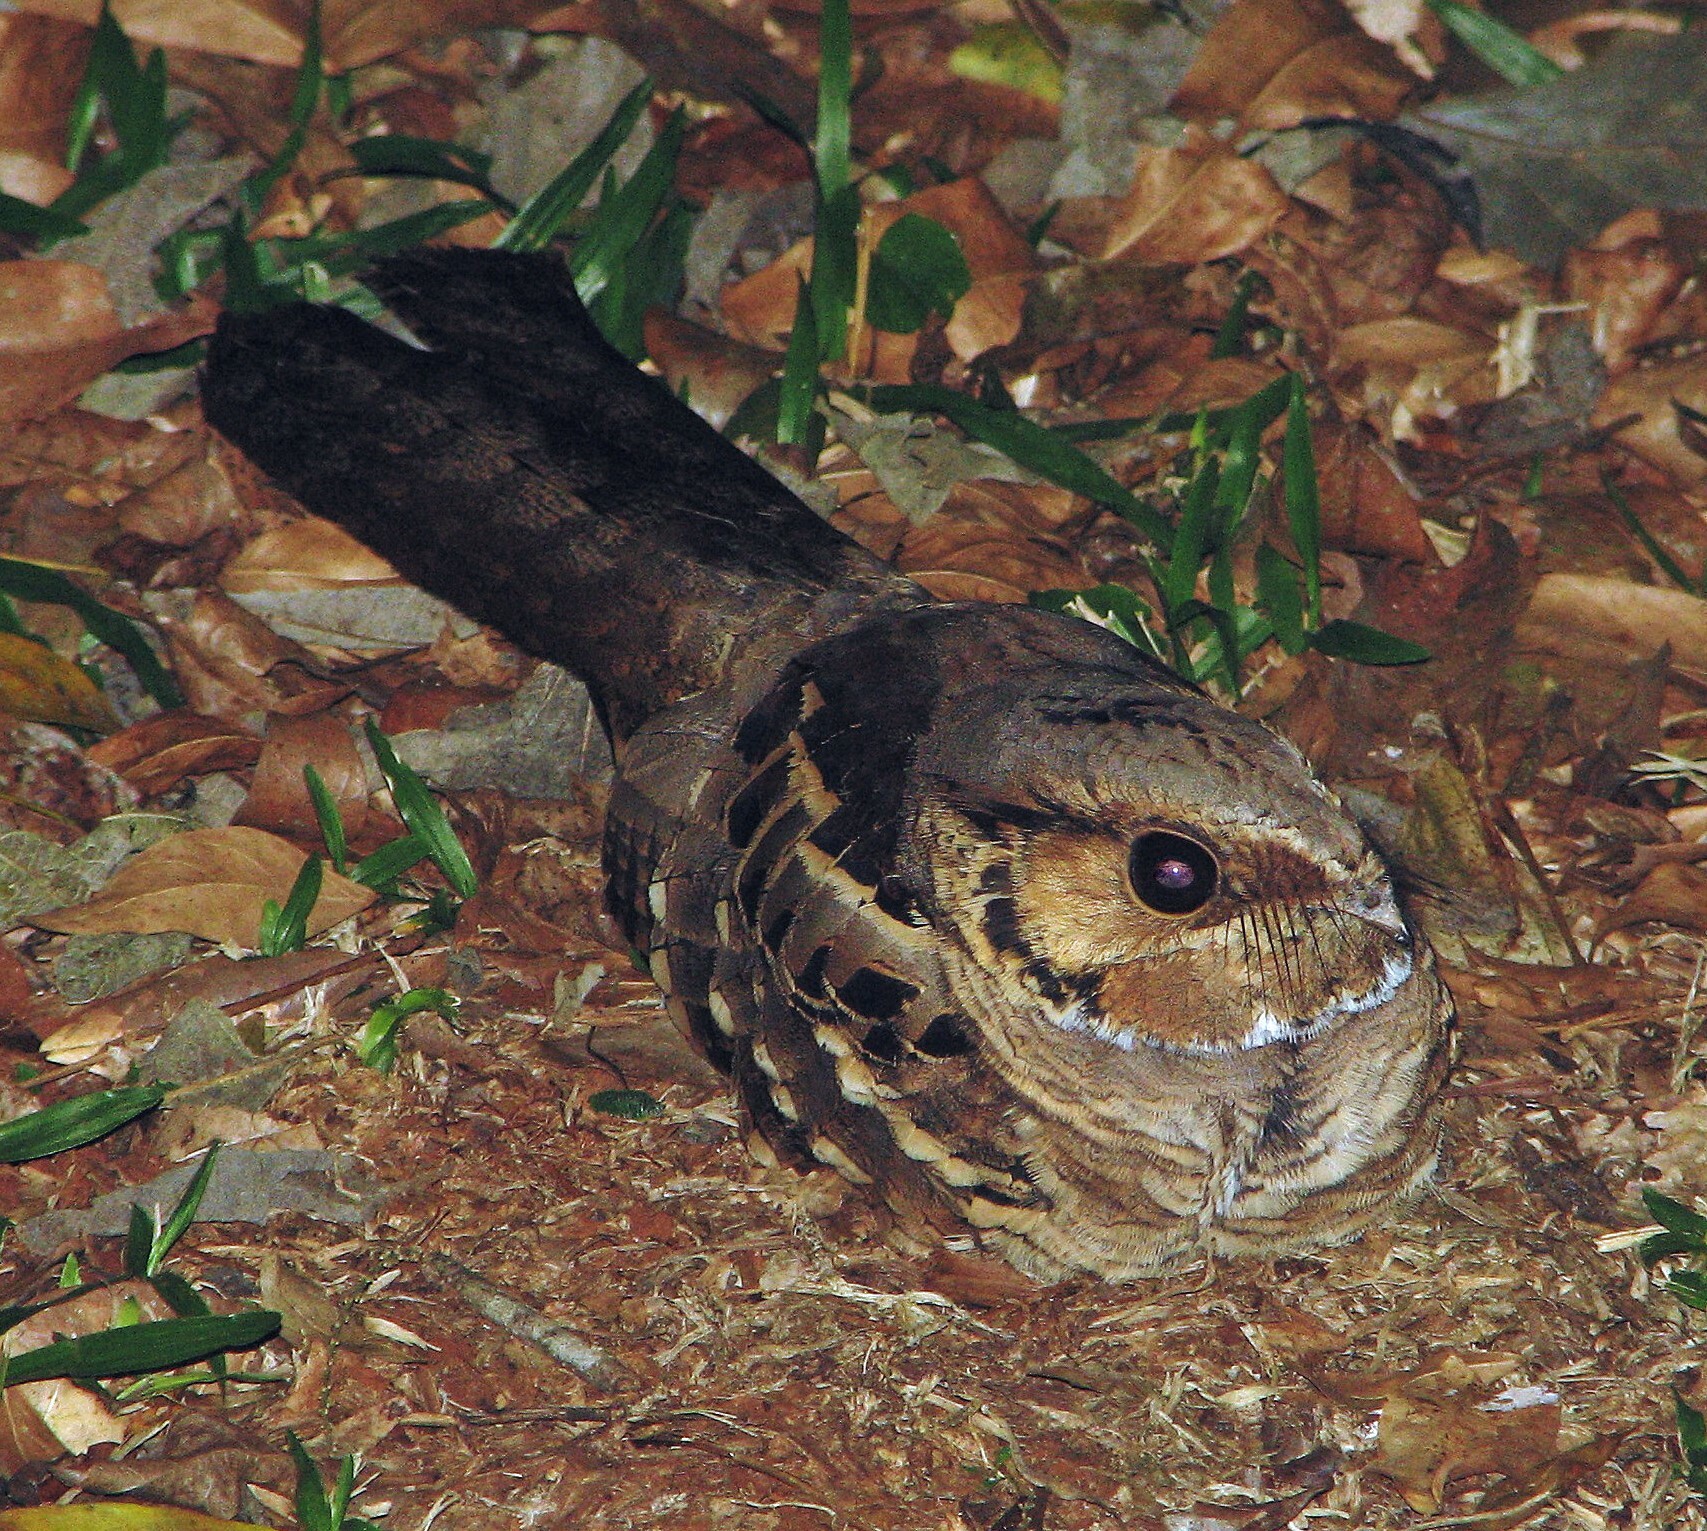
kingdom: Animalia
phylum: Chordata
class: Aves
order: Caprimulgiformes
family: Caprimulgidae
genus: Nyctidromus
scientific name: Nyctidromus albicollis
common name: Pauraque
